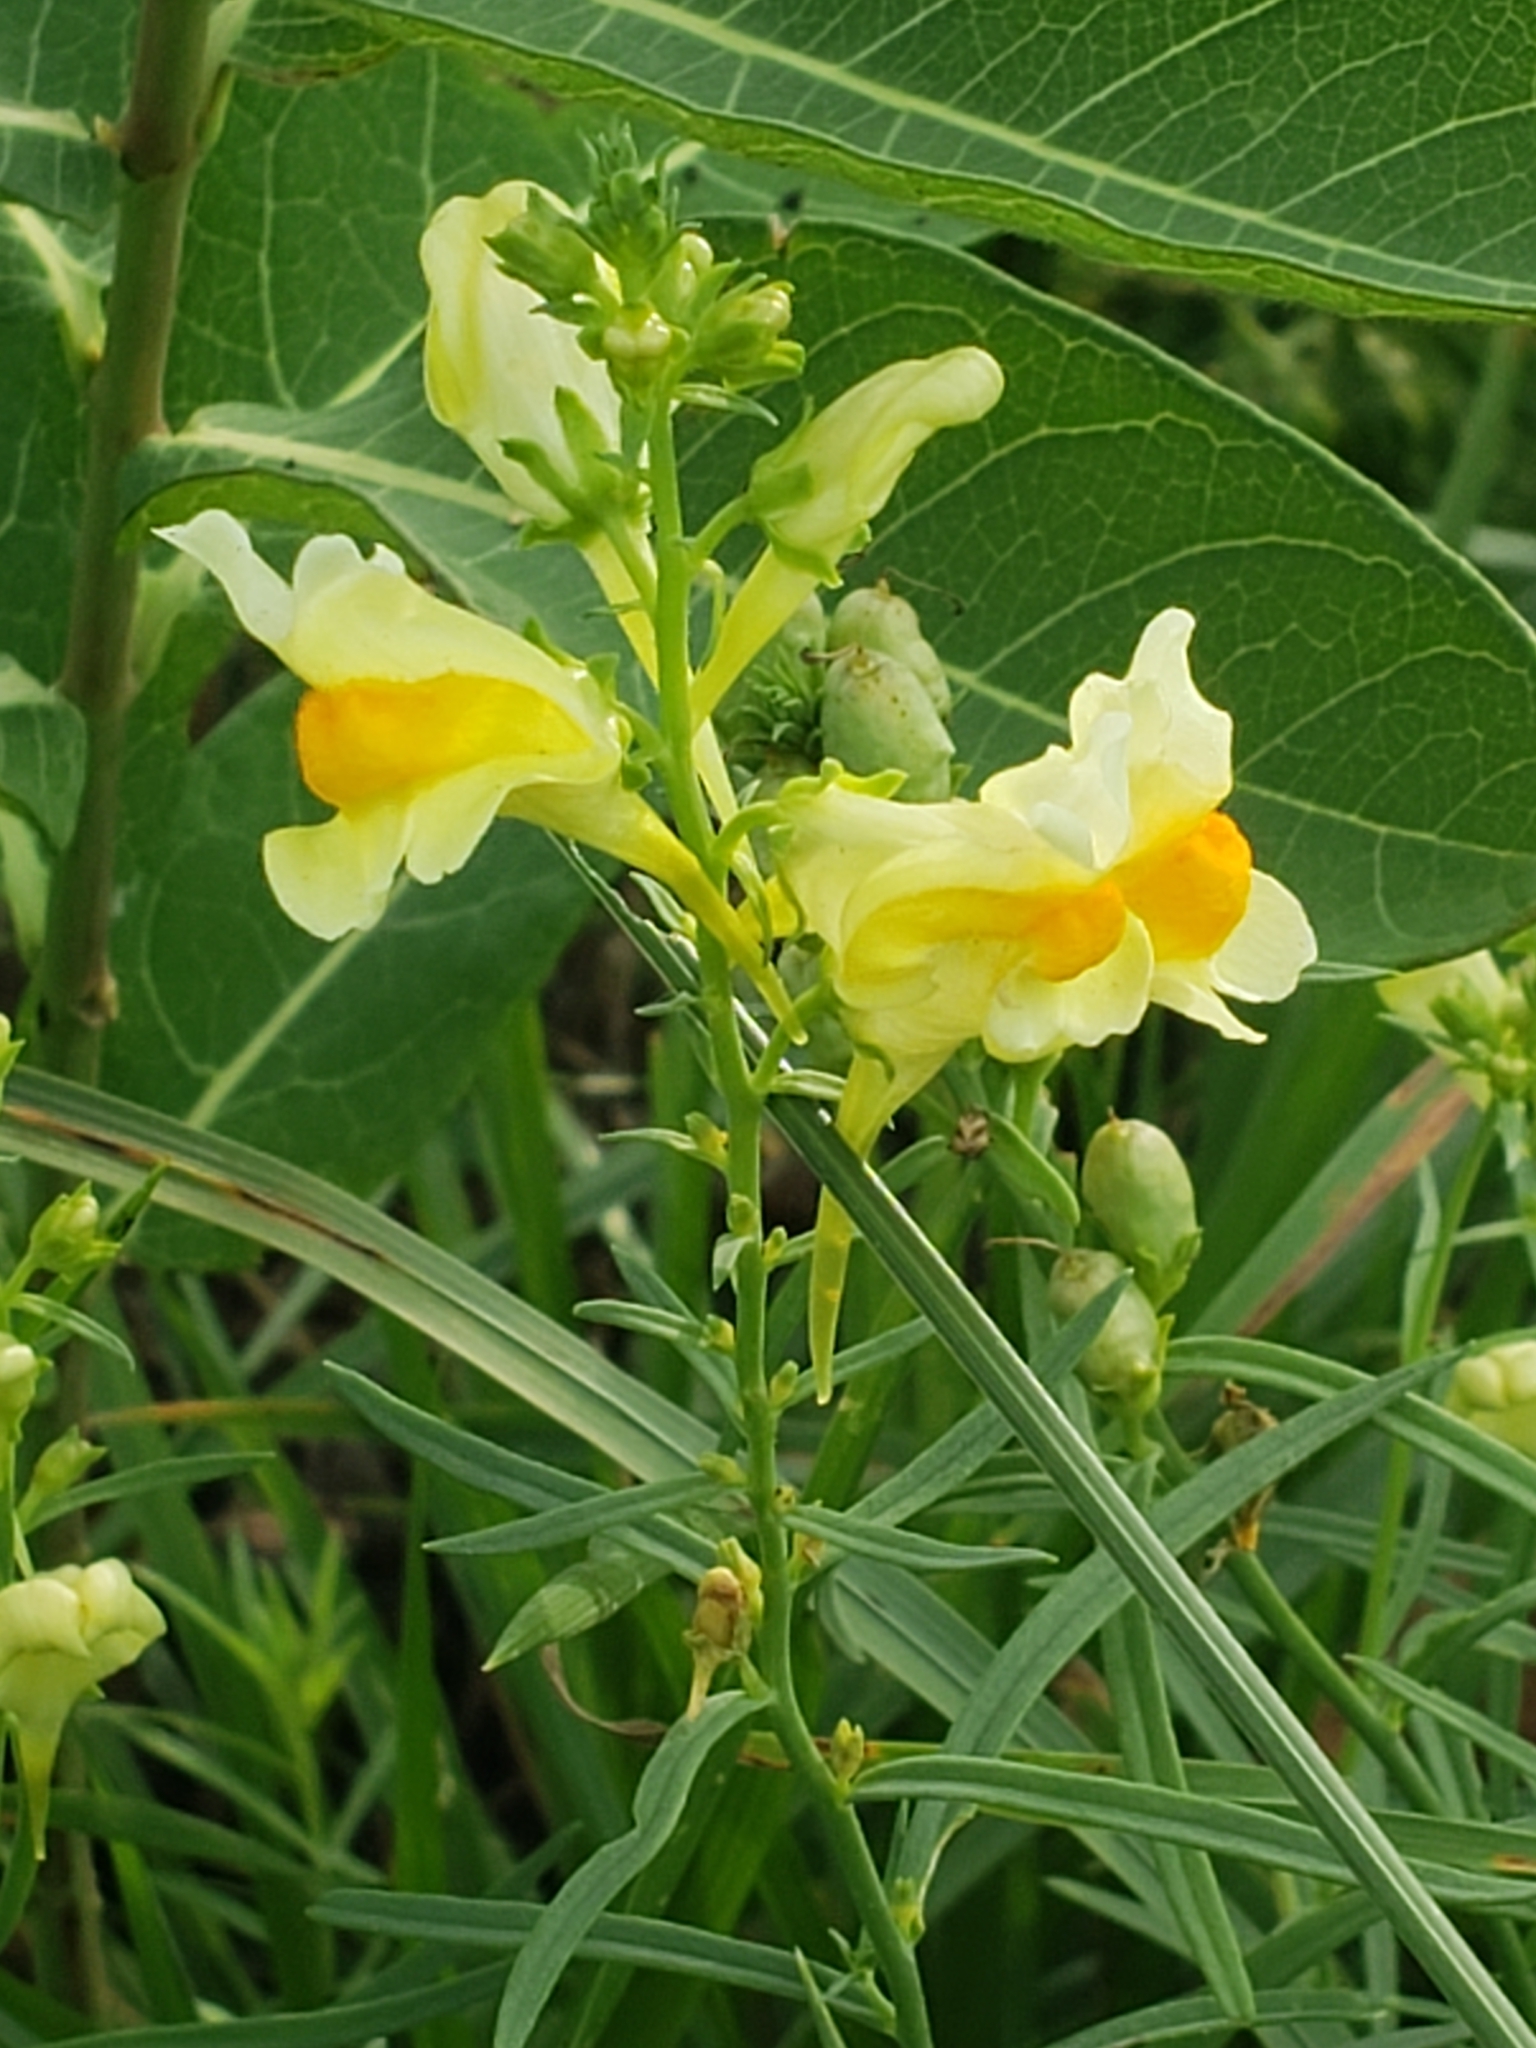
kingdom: Plantae
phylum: Tracheophyta
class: Magnoliopsida
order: Lamiales
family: Plantaginaceae
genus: Linaria
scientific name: Linaria vulgaris
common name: Butter and eggs
